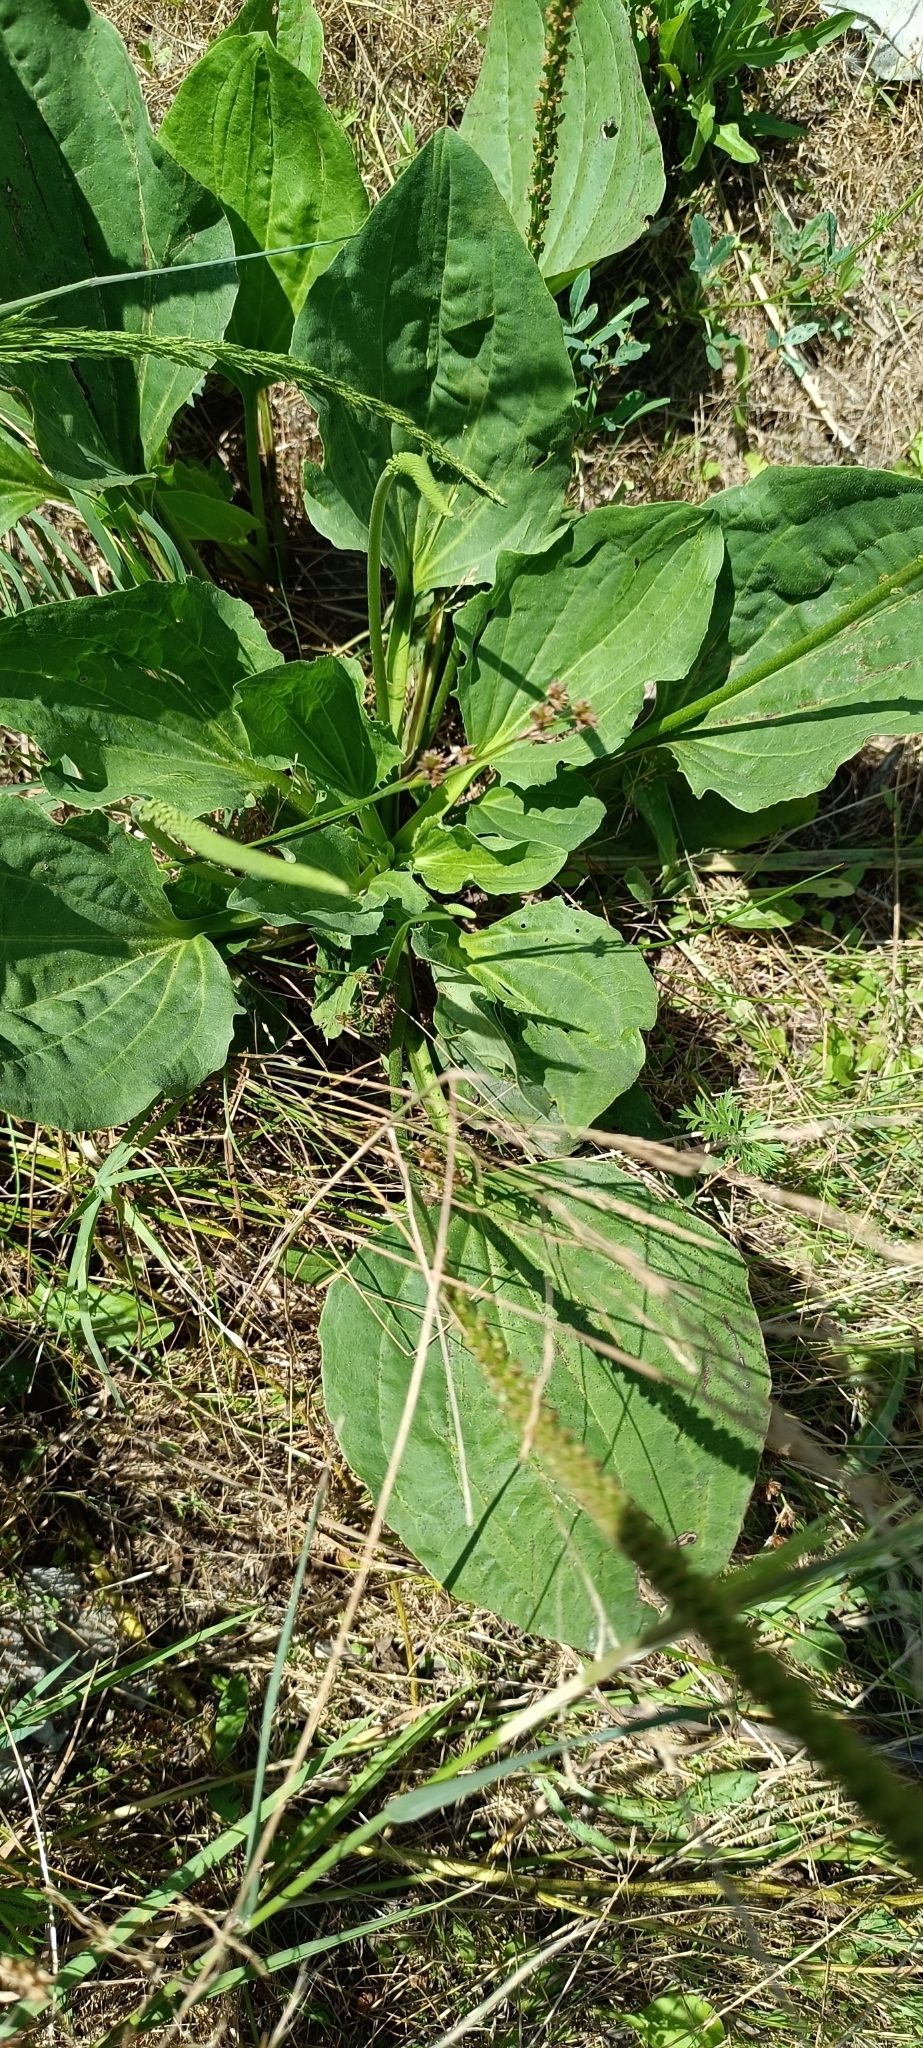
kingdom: Plantae
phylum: Tracheophyta
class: Magnoliopsida
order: Lamiales
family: Plantaginaceae
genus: Plantago
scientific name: Plantago major
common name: Common plantain
